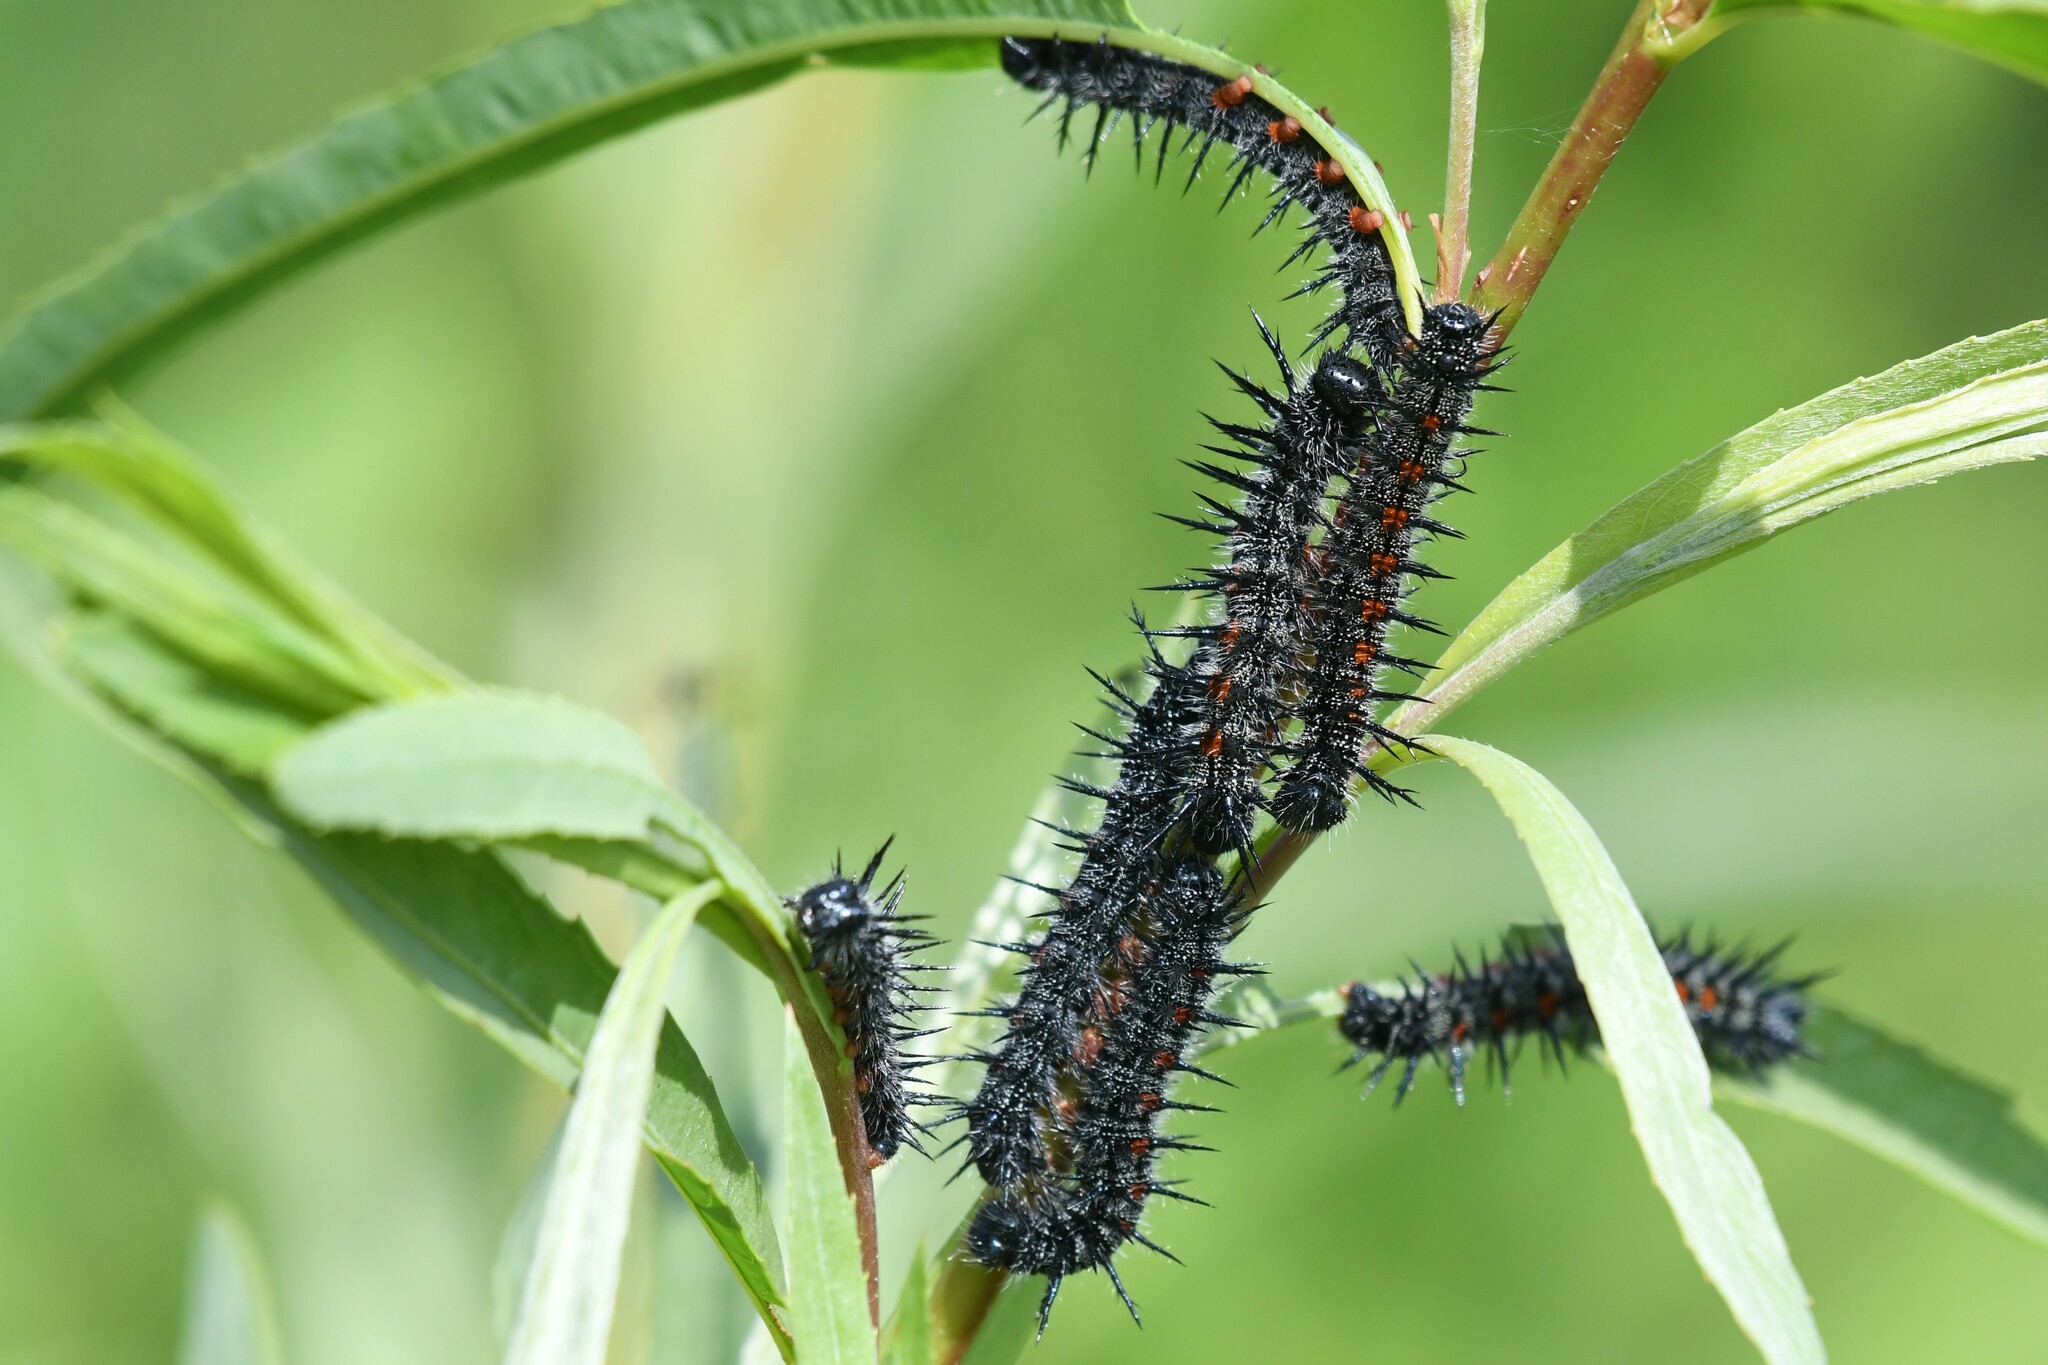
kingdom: Animalia
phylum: Arthropoda
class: Insecta
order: Lepidoptera
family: Nymphalidae
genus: Nymphalis
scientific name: Nymphalis antiopa
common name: Camberwell beauty
